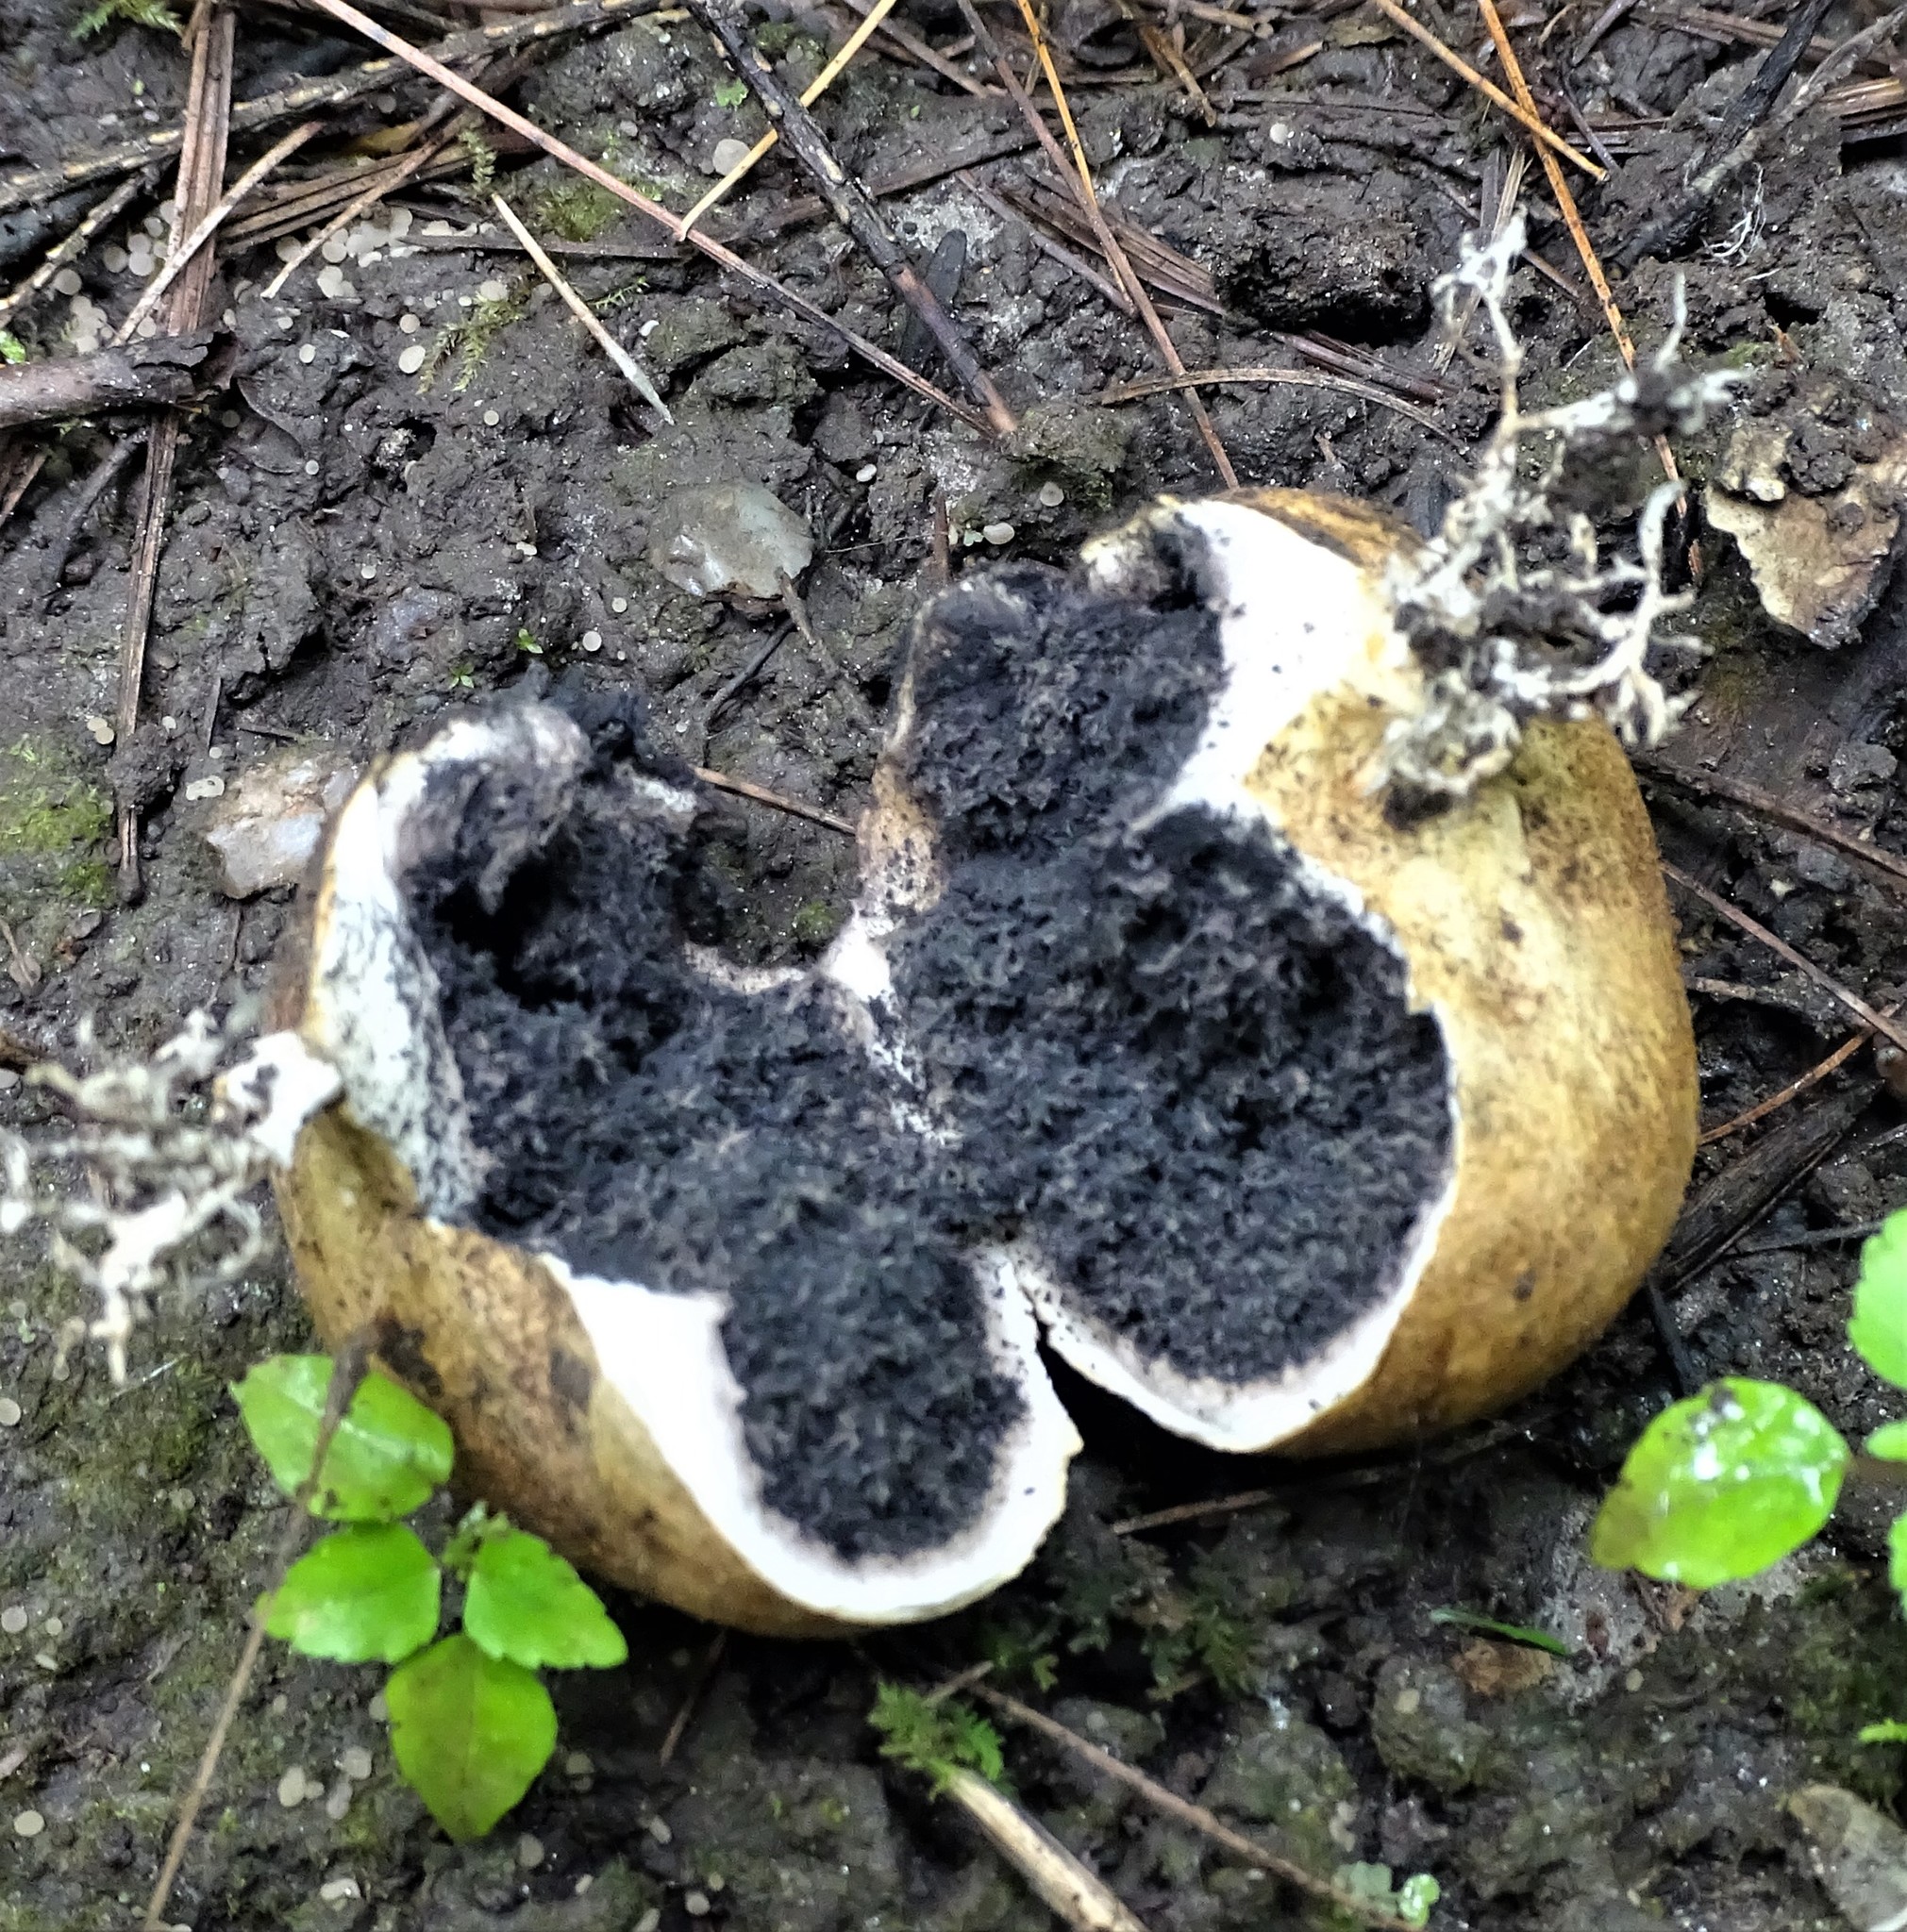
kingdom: Fungi
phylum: Basidiomycota
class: Agaricomycetes
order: Boletales
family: Sclerodermataceae
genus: Scleroderma
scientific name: Scleroderma citrinum
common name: Common earthball
